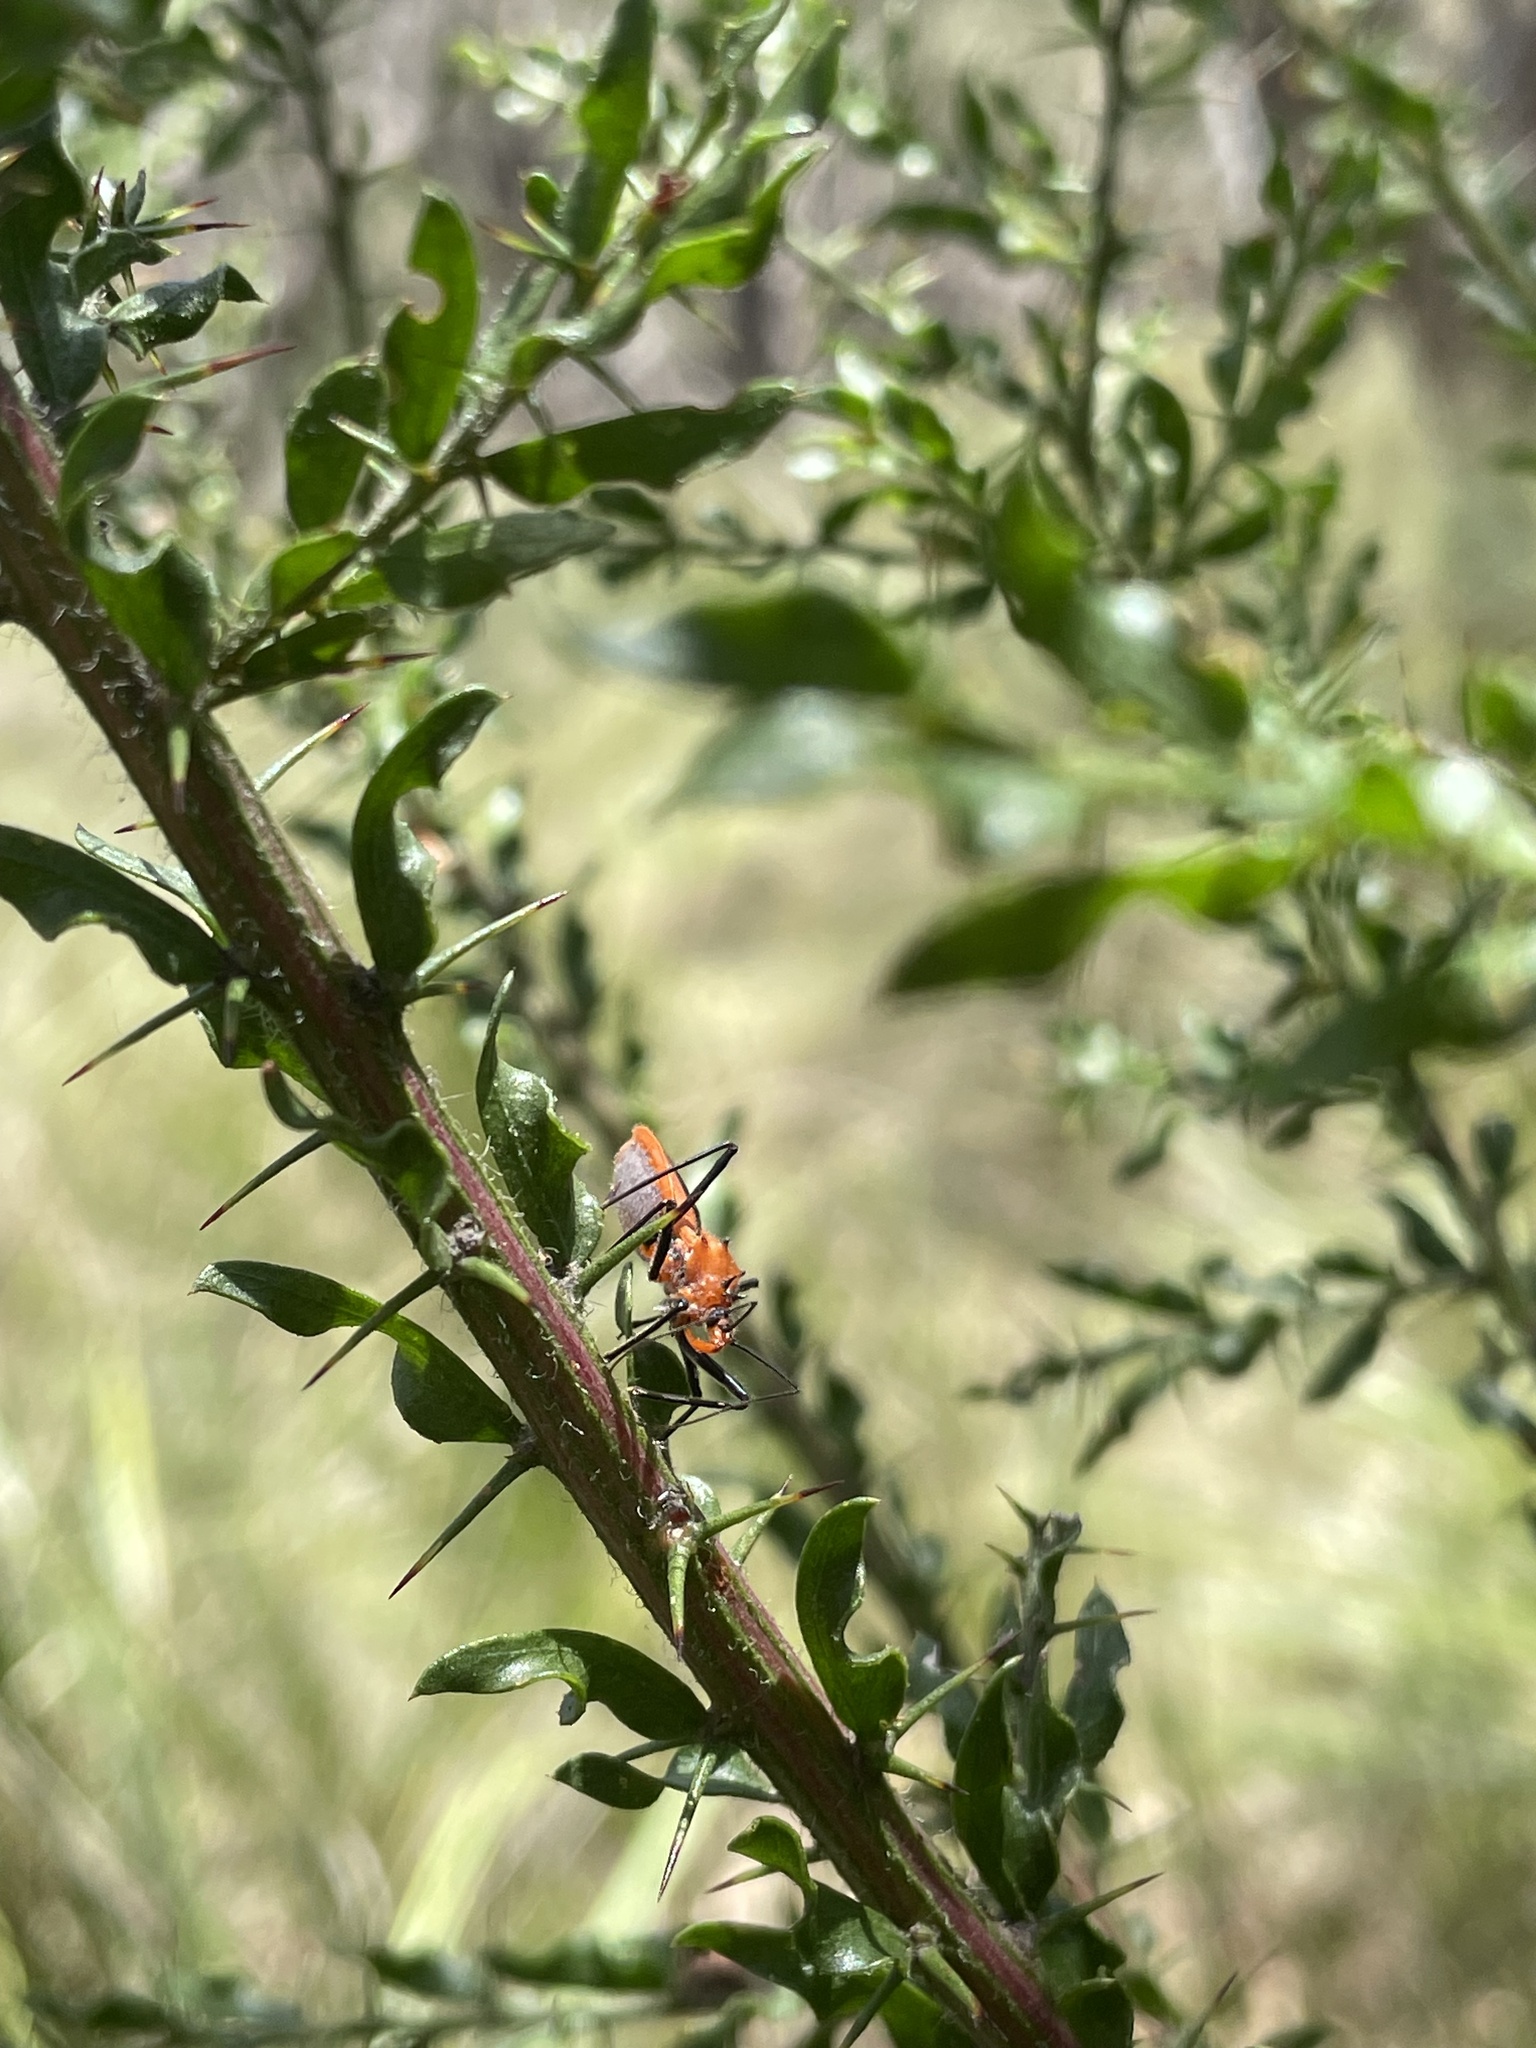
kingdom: Animalia
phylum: Arthropoda
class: Insecta
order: Hemiptera
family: Reduviidae
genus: Gminatus
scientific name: Gminatus australis
